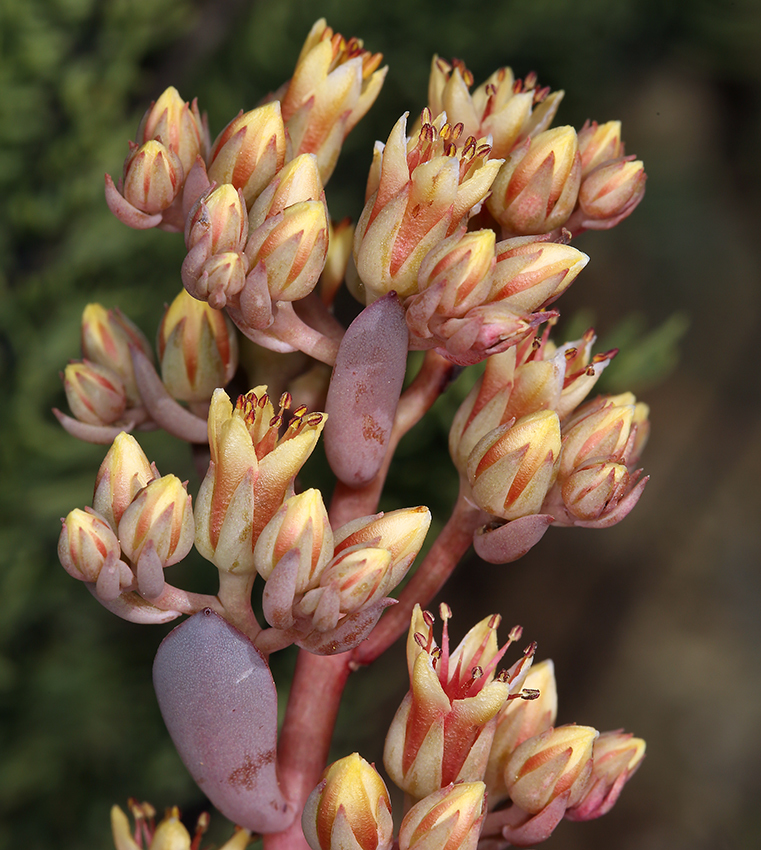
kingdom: Plantae
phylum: Tracheophyta
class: Magnoliopsida
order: Saxifragales
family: Crassulaceae
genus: Sedum
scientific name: Sedum paradisum
